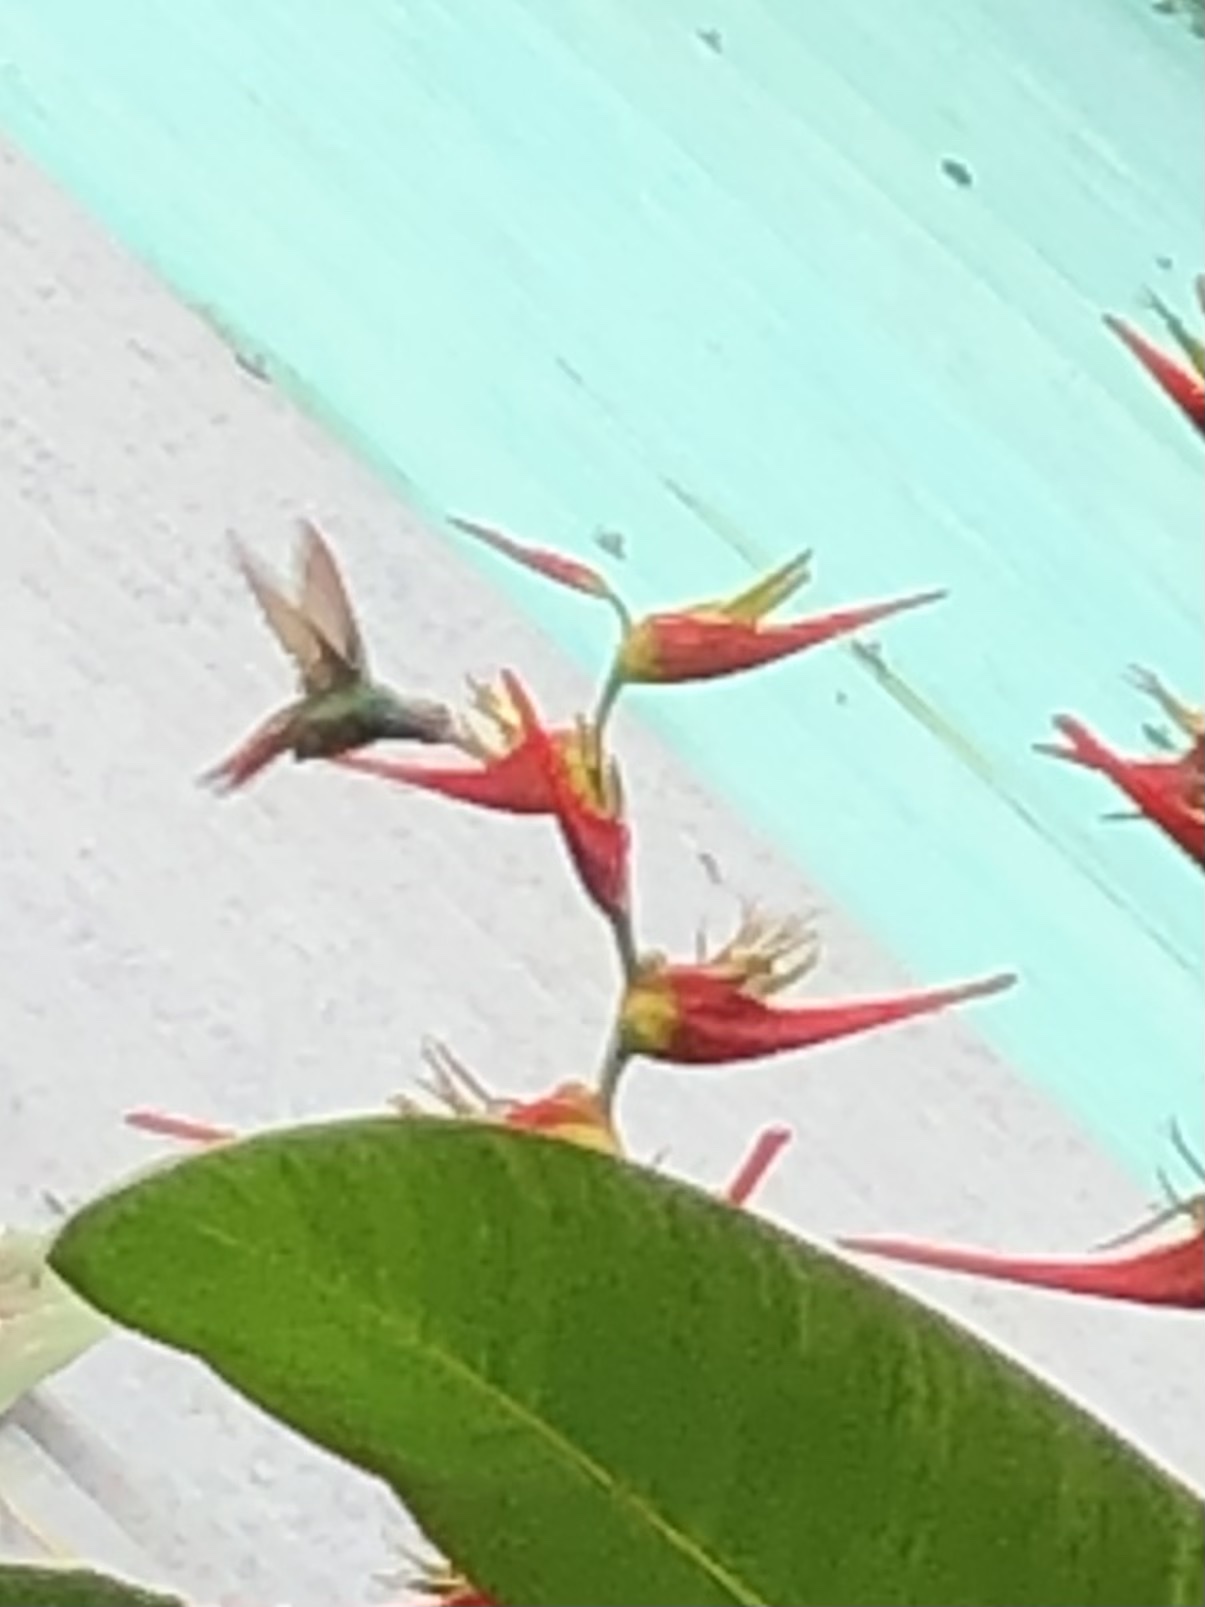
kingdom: Animalia
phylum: Chordata
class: Aves
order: Apodiformes
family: Trochilidae
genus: Amazilia
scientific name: Amazilia tzacatl
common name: Rufous-tailed hummingbird
